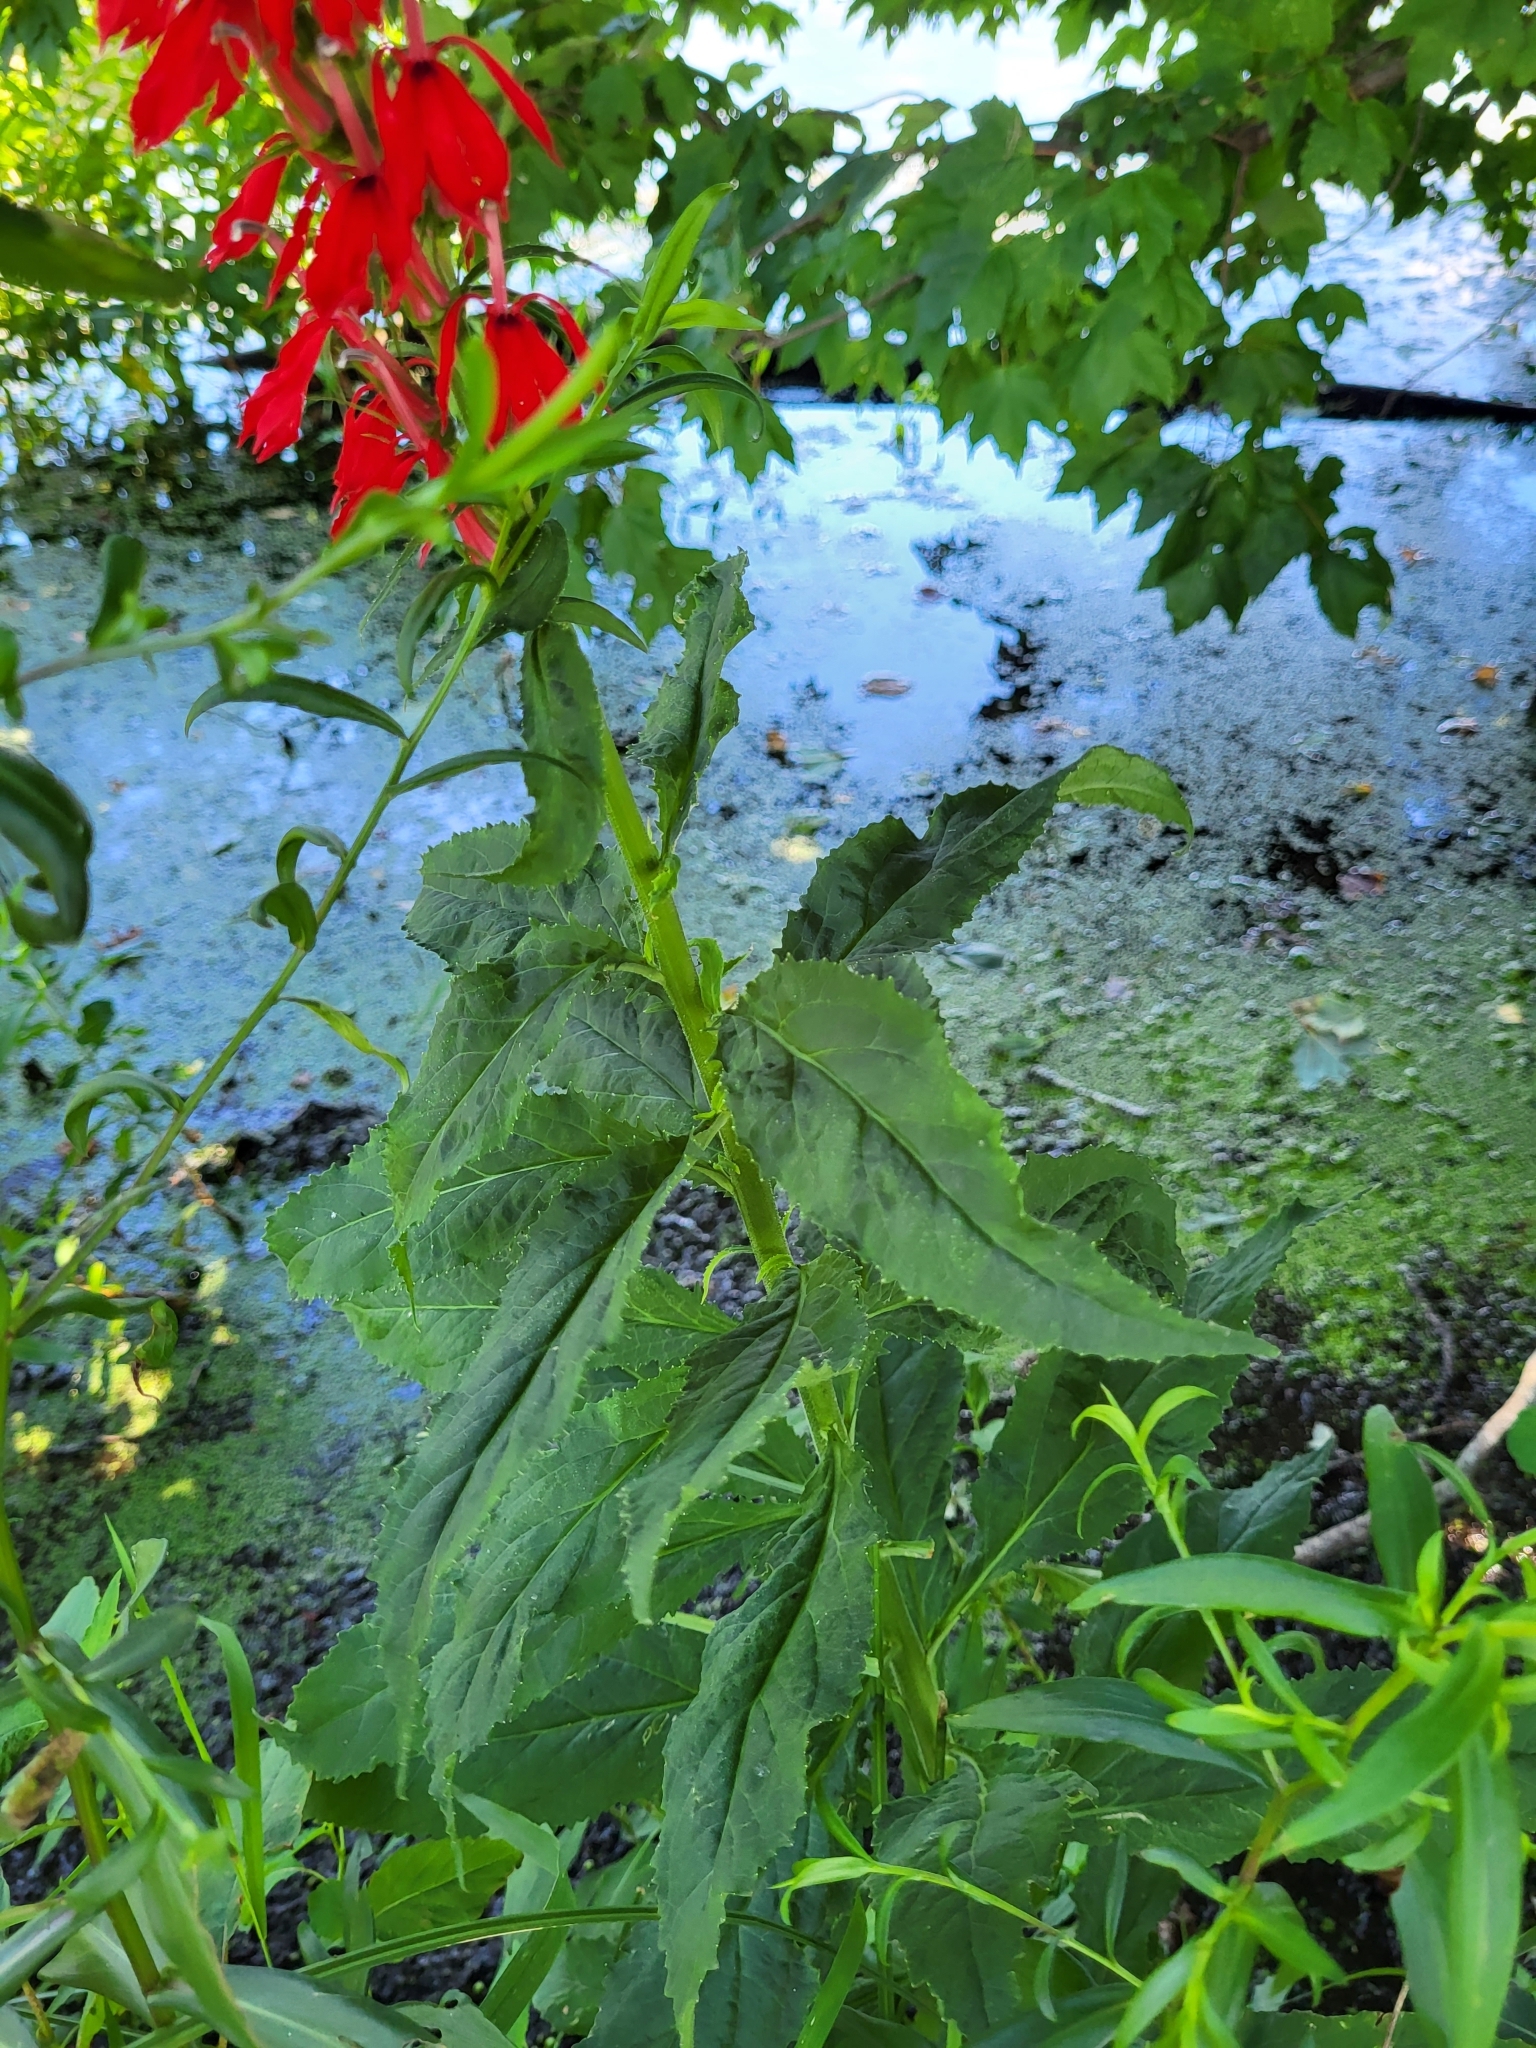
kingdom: Plantae
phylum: Tracheophyta
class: Magnoliopsida
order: Asterales
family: Campanulaceae
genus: Lobelia
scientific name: Lobelia cardinalis
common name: Cardinal flower
